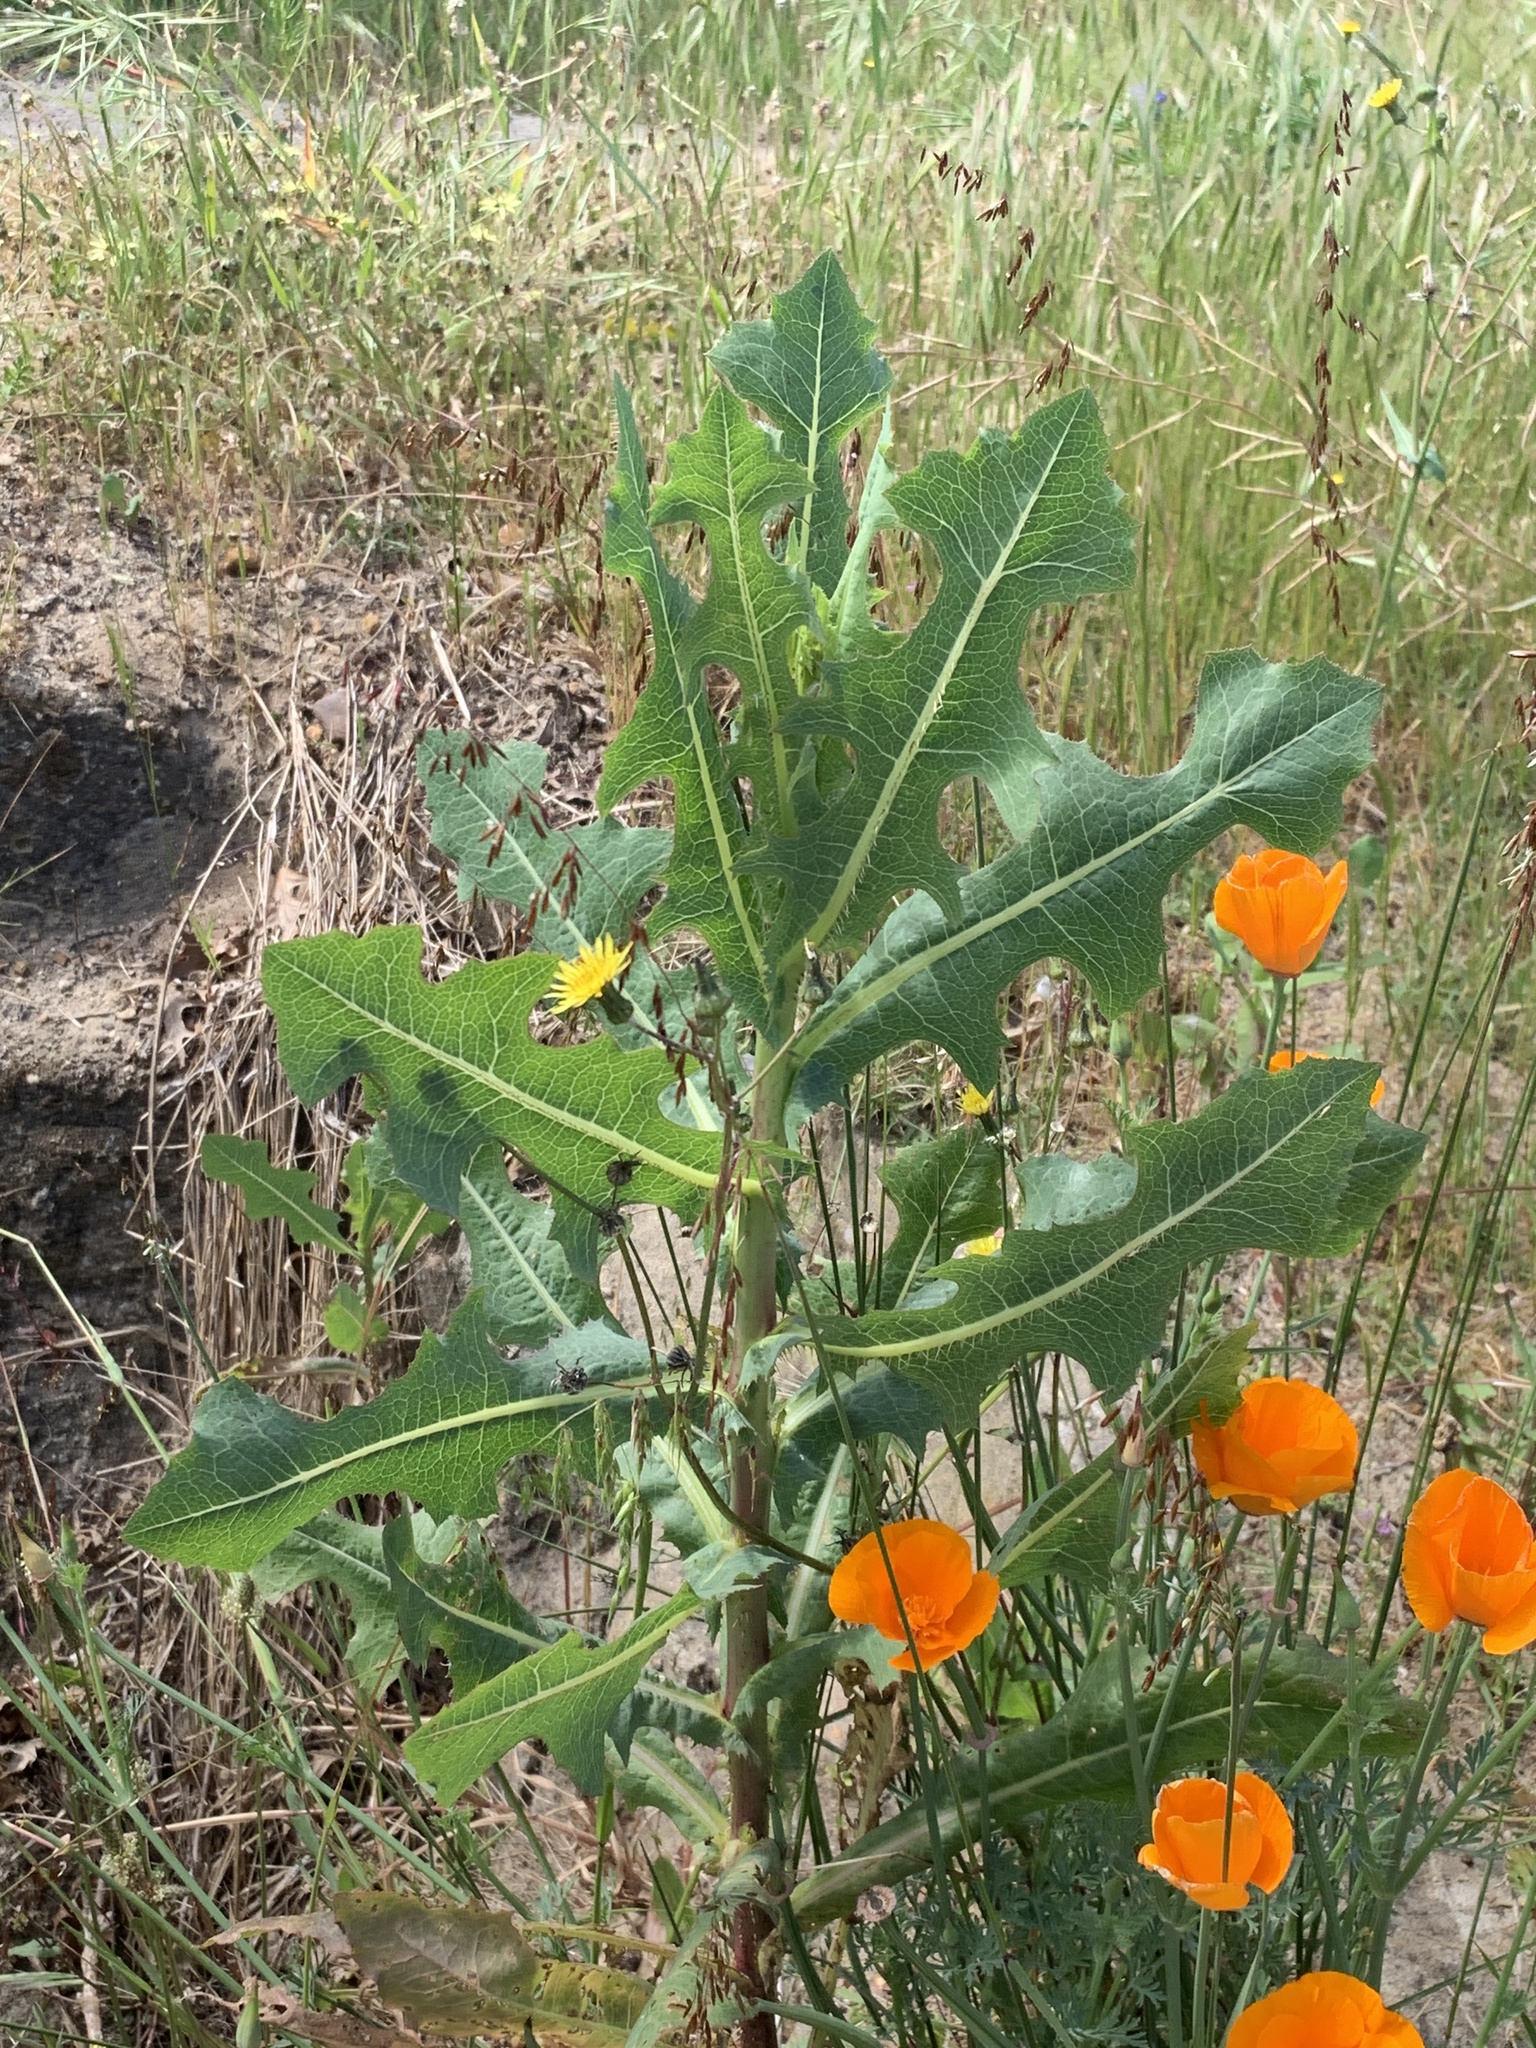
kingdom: Plantae
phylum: Tracheophyta
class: Magnoliopsida
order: Asterales
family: Asteraceae
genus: Lactuca
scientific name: Lactuca serriola
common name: Prickly lettuce
